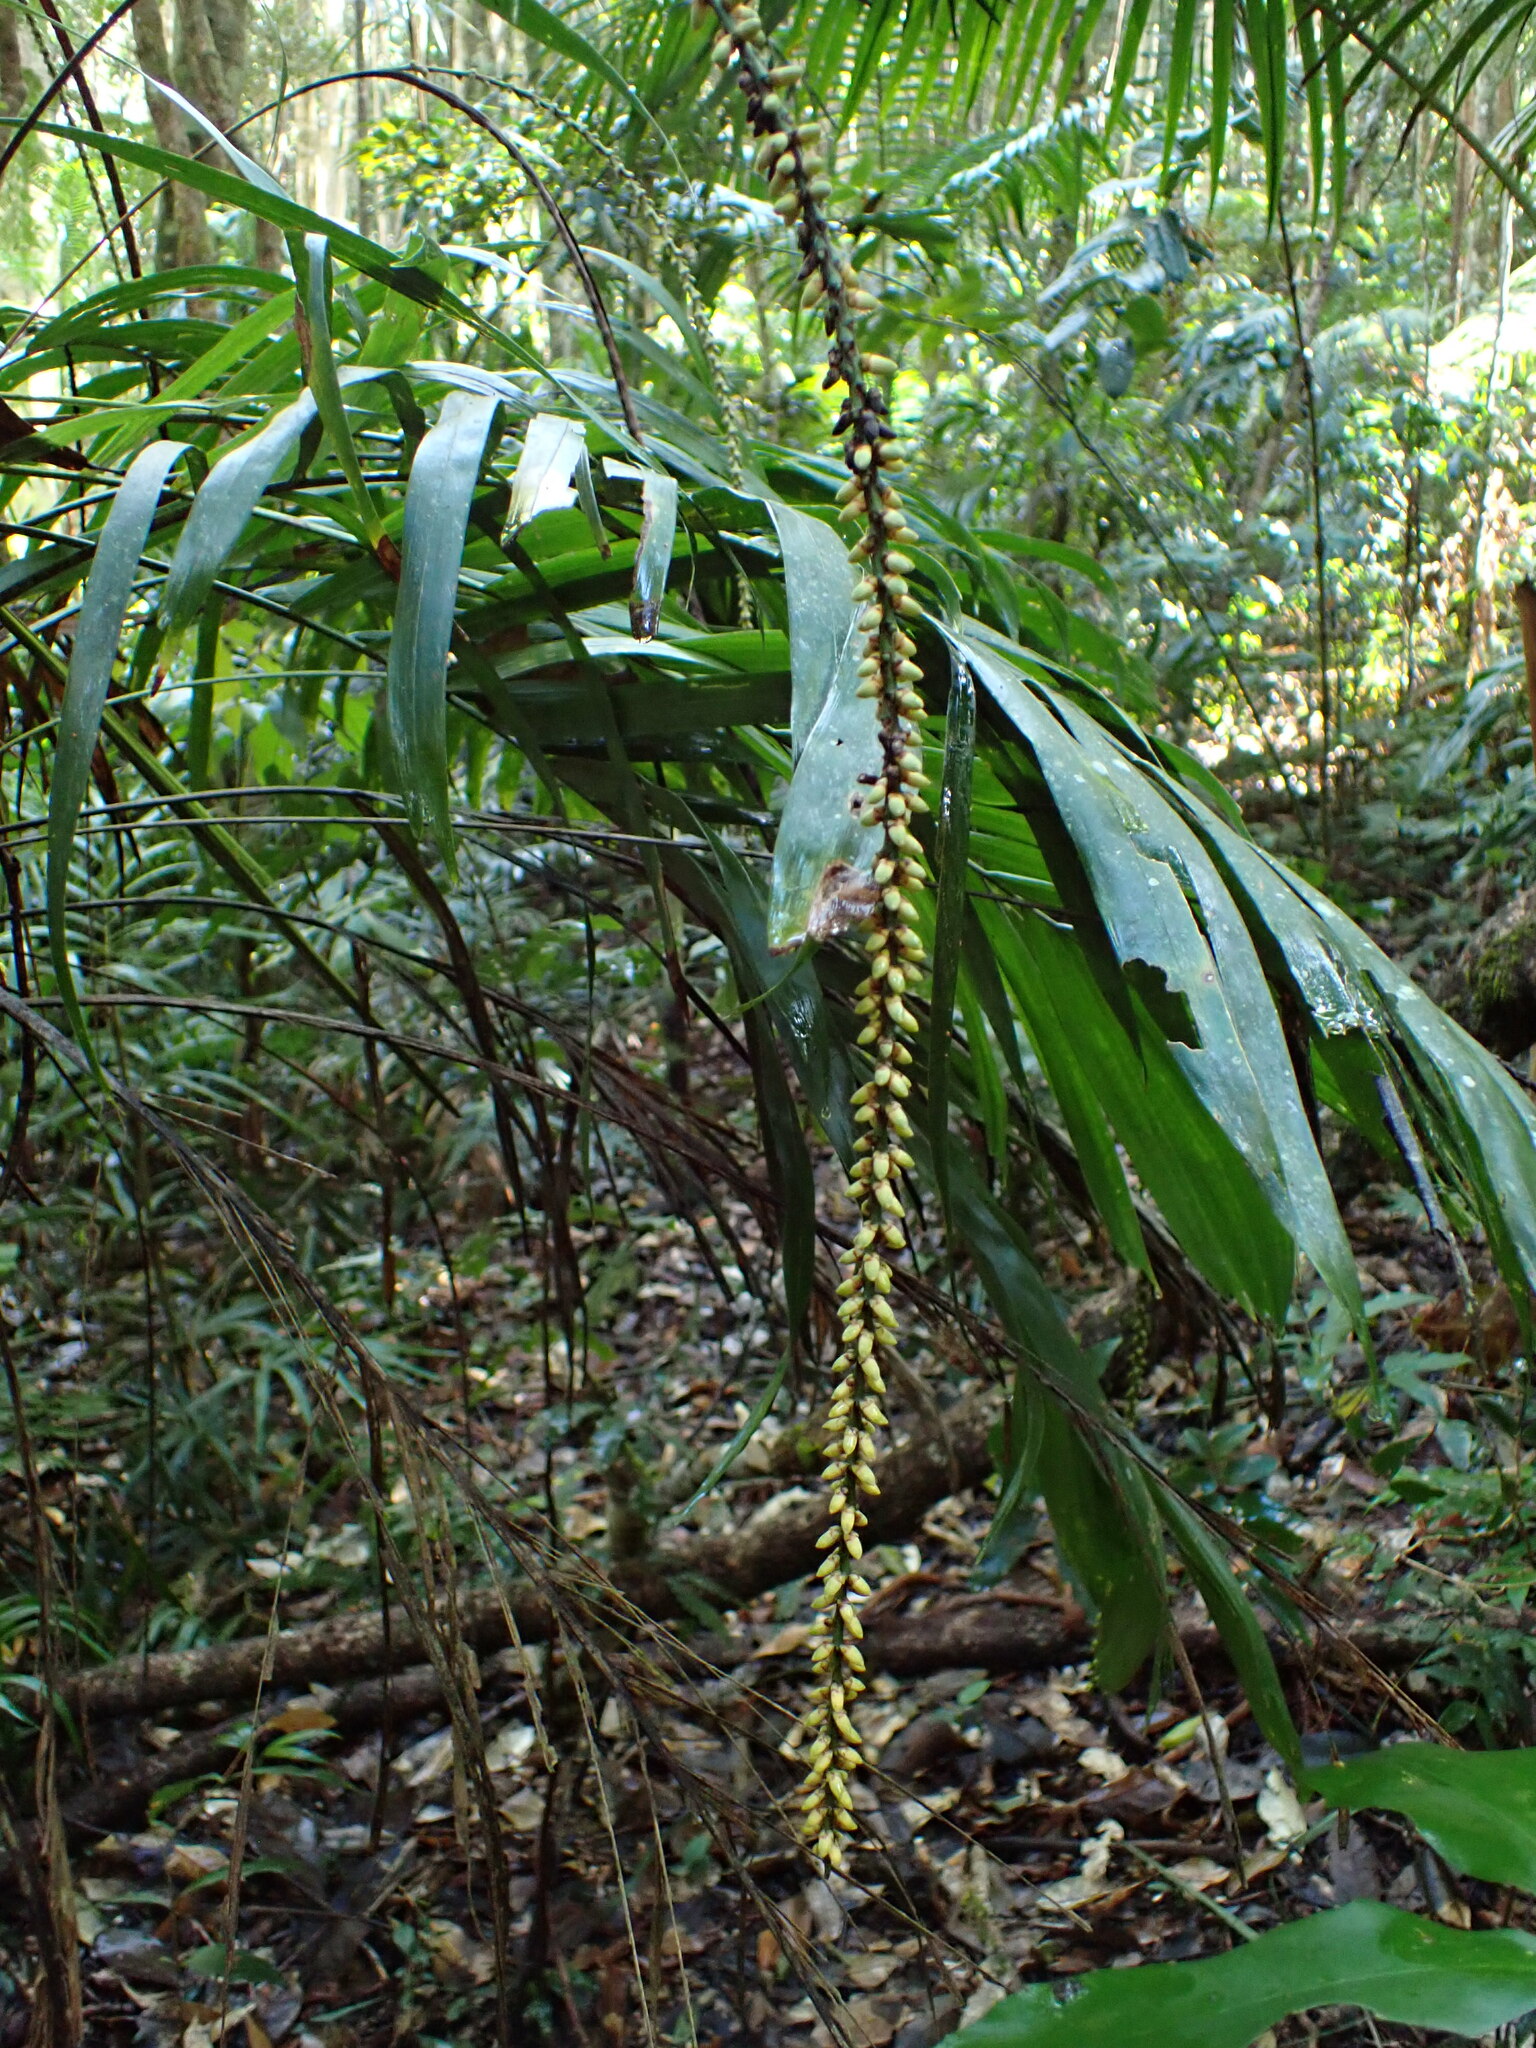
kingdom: Plantae
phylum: Tracheophyta
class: Liliopsida
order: Arecales
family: Arecaceae
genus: Linospadix
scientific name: Linospadix monostachyus
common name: Walking-stick palm
